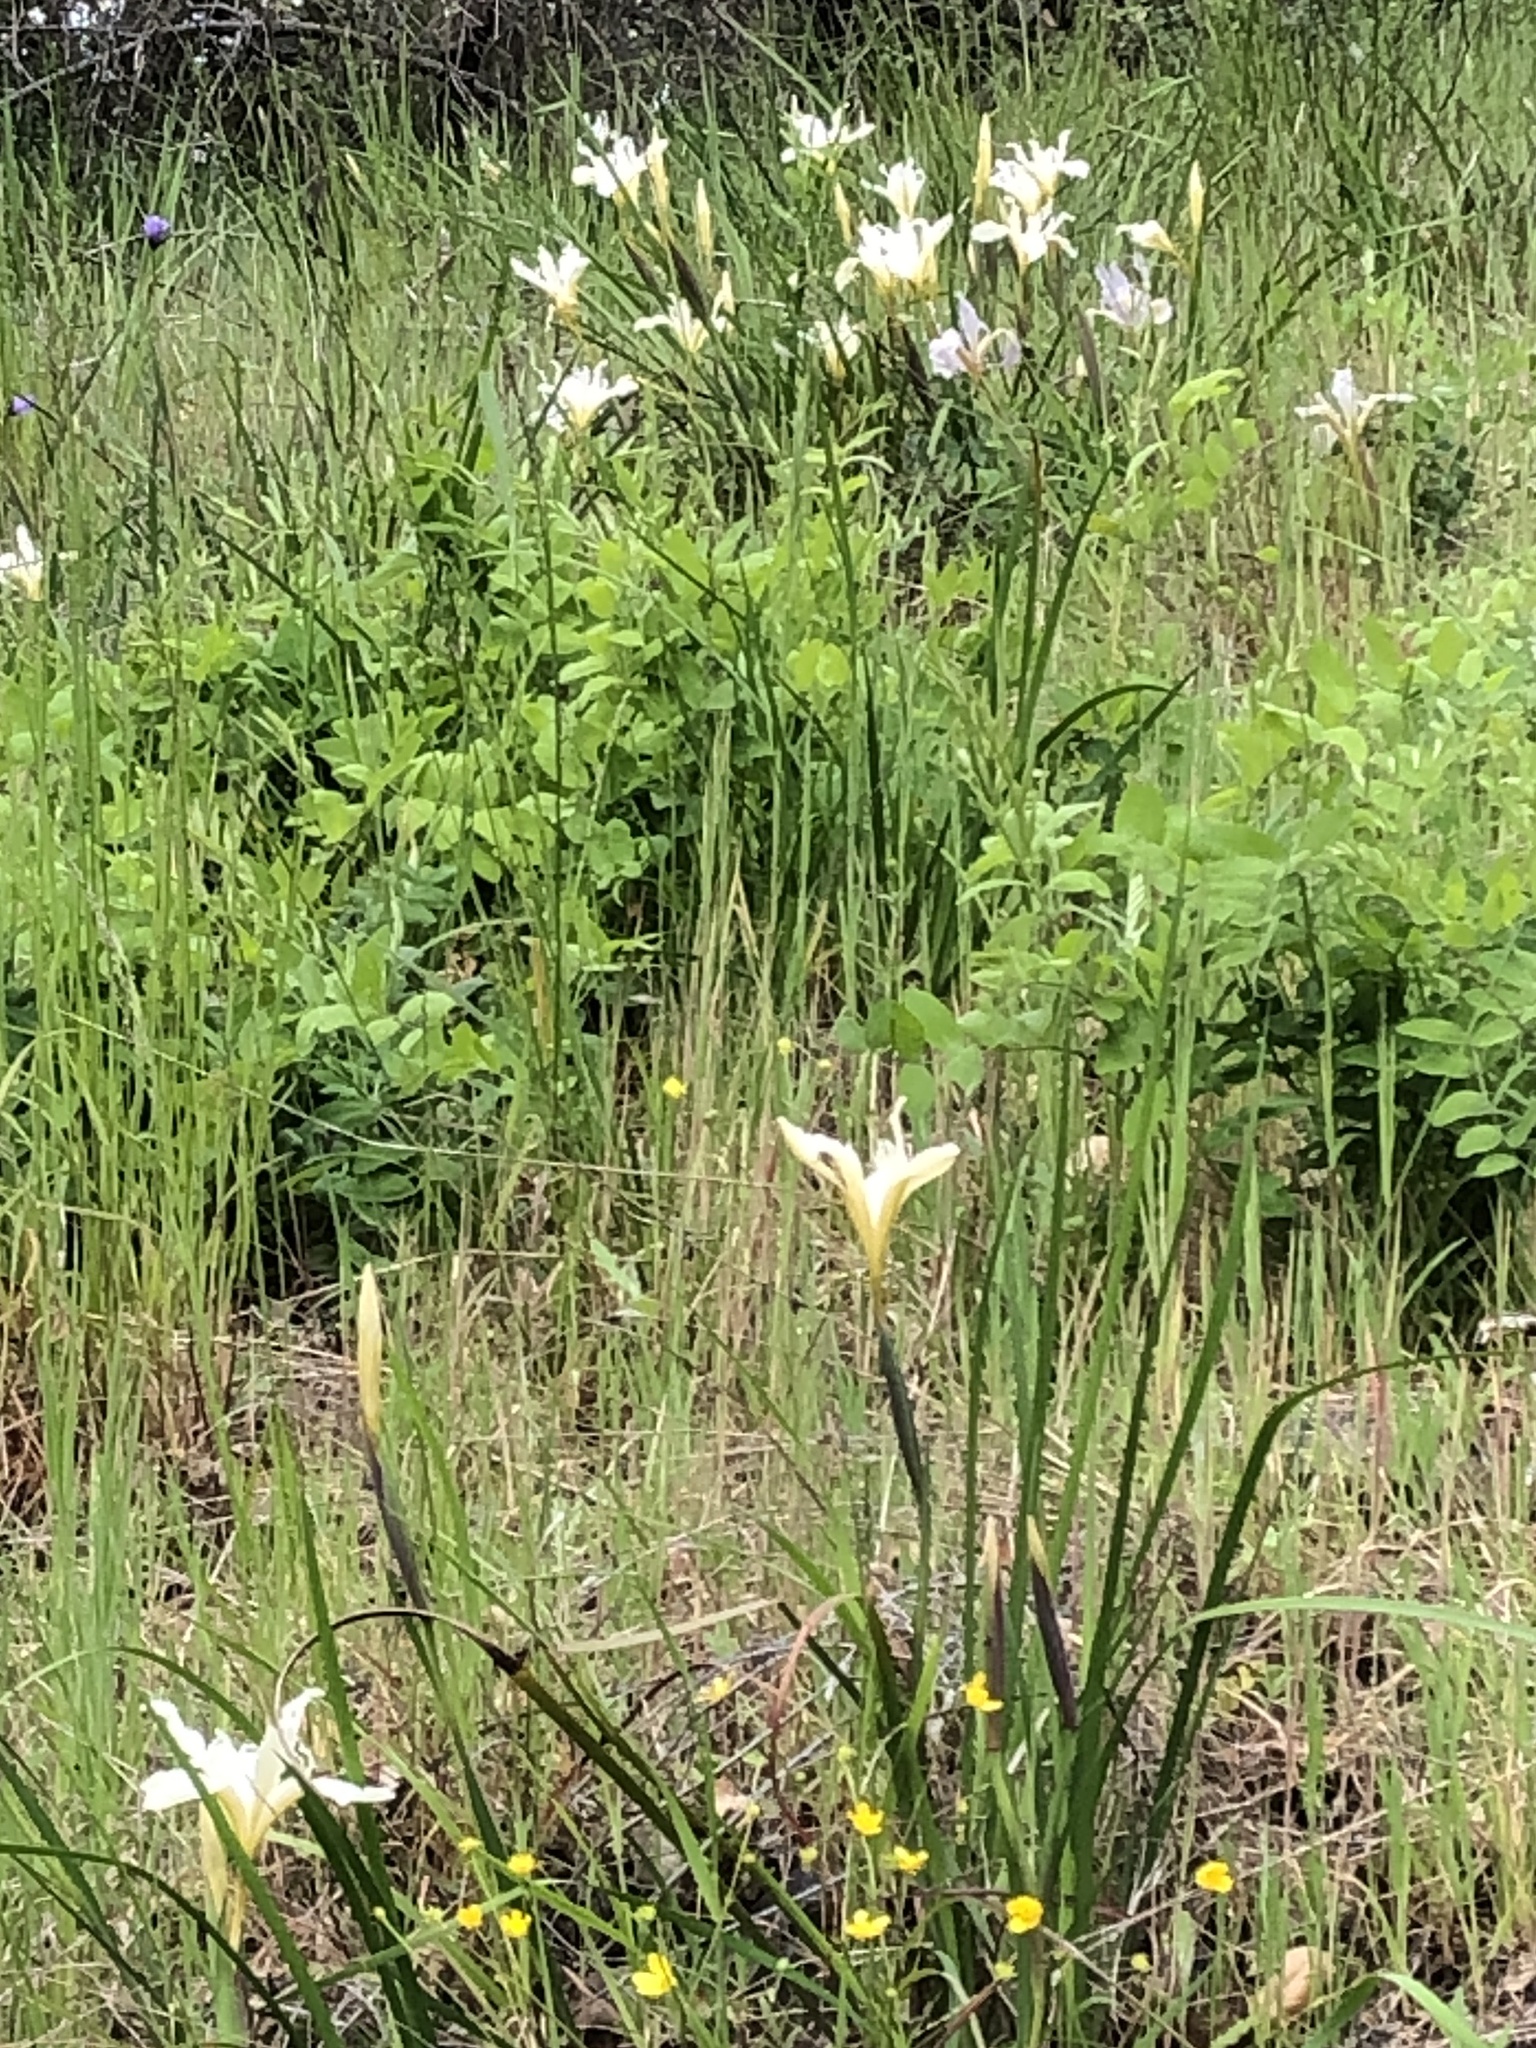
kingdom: Plantae
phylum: Tracheophyta
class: Liliopsida
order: Asparagales
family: Iridaceae
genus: Iris
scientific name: Iris fernaldii
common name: Fernald's iris
